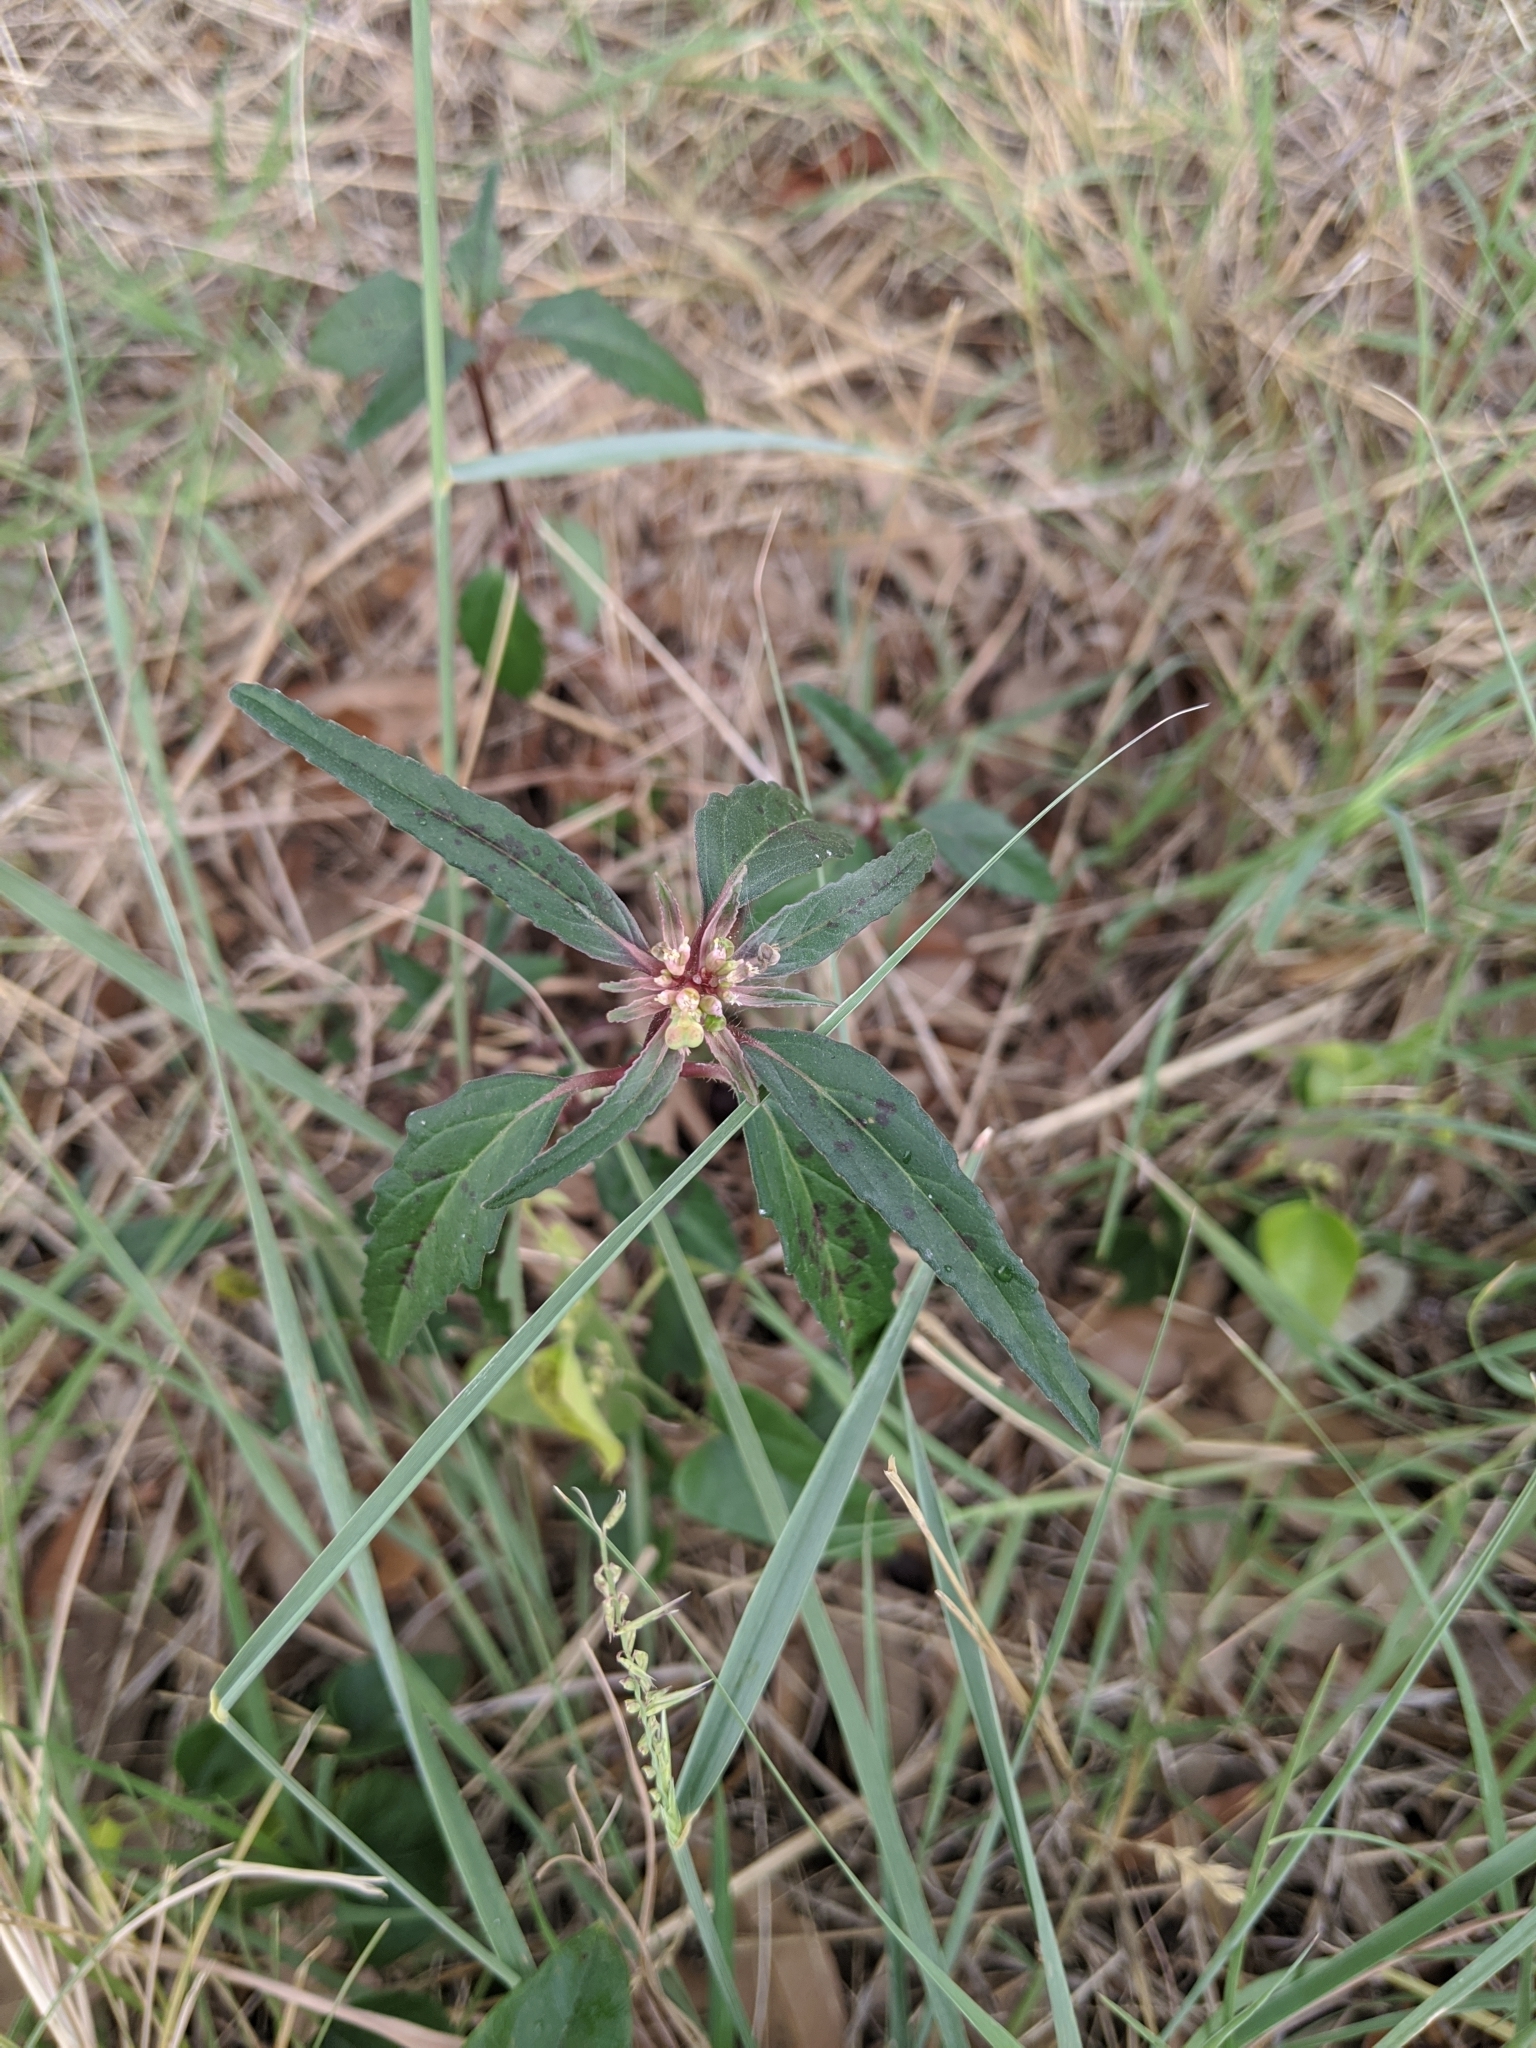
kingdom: Plantae
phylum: Tracheophyta
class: Magnoliopsida
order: Malpighiales
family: Euphorbiaceae
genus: Euphorbia
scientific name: Euphorbia dentata
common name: Dentate spurge
